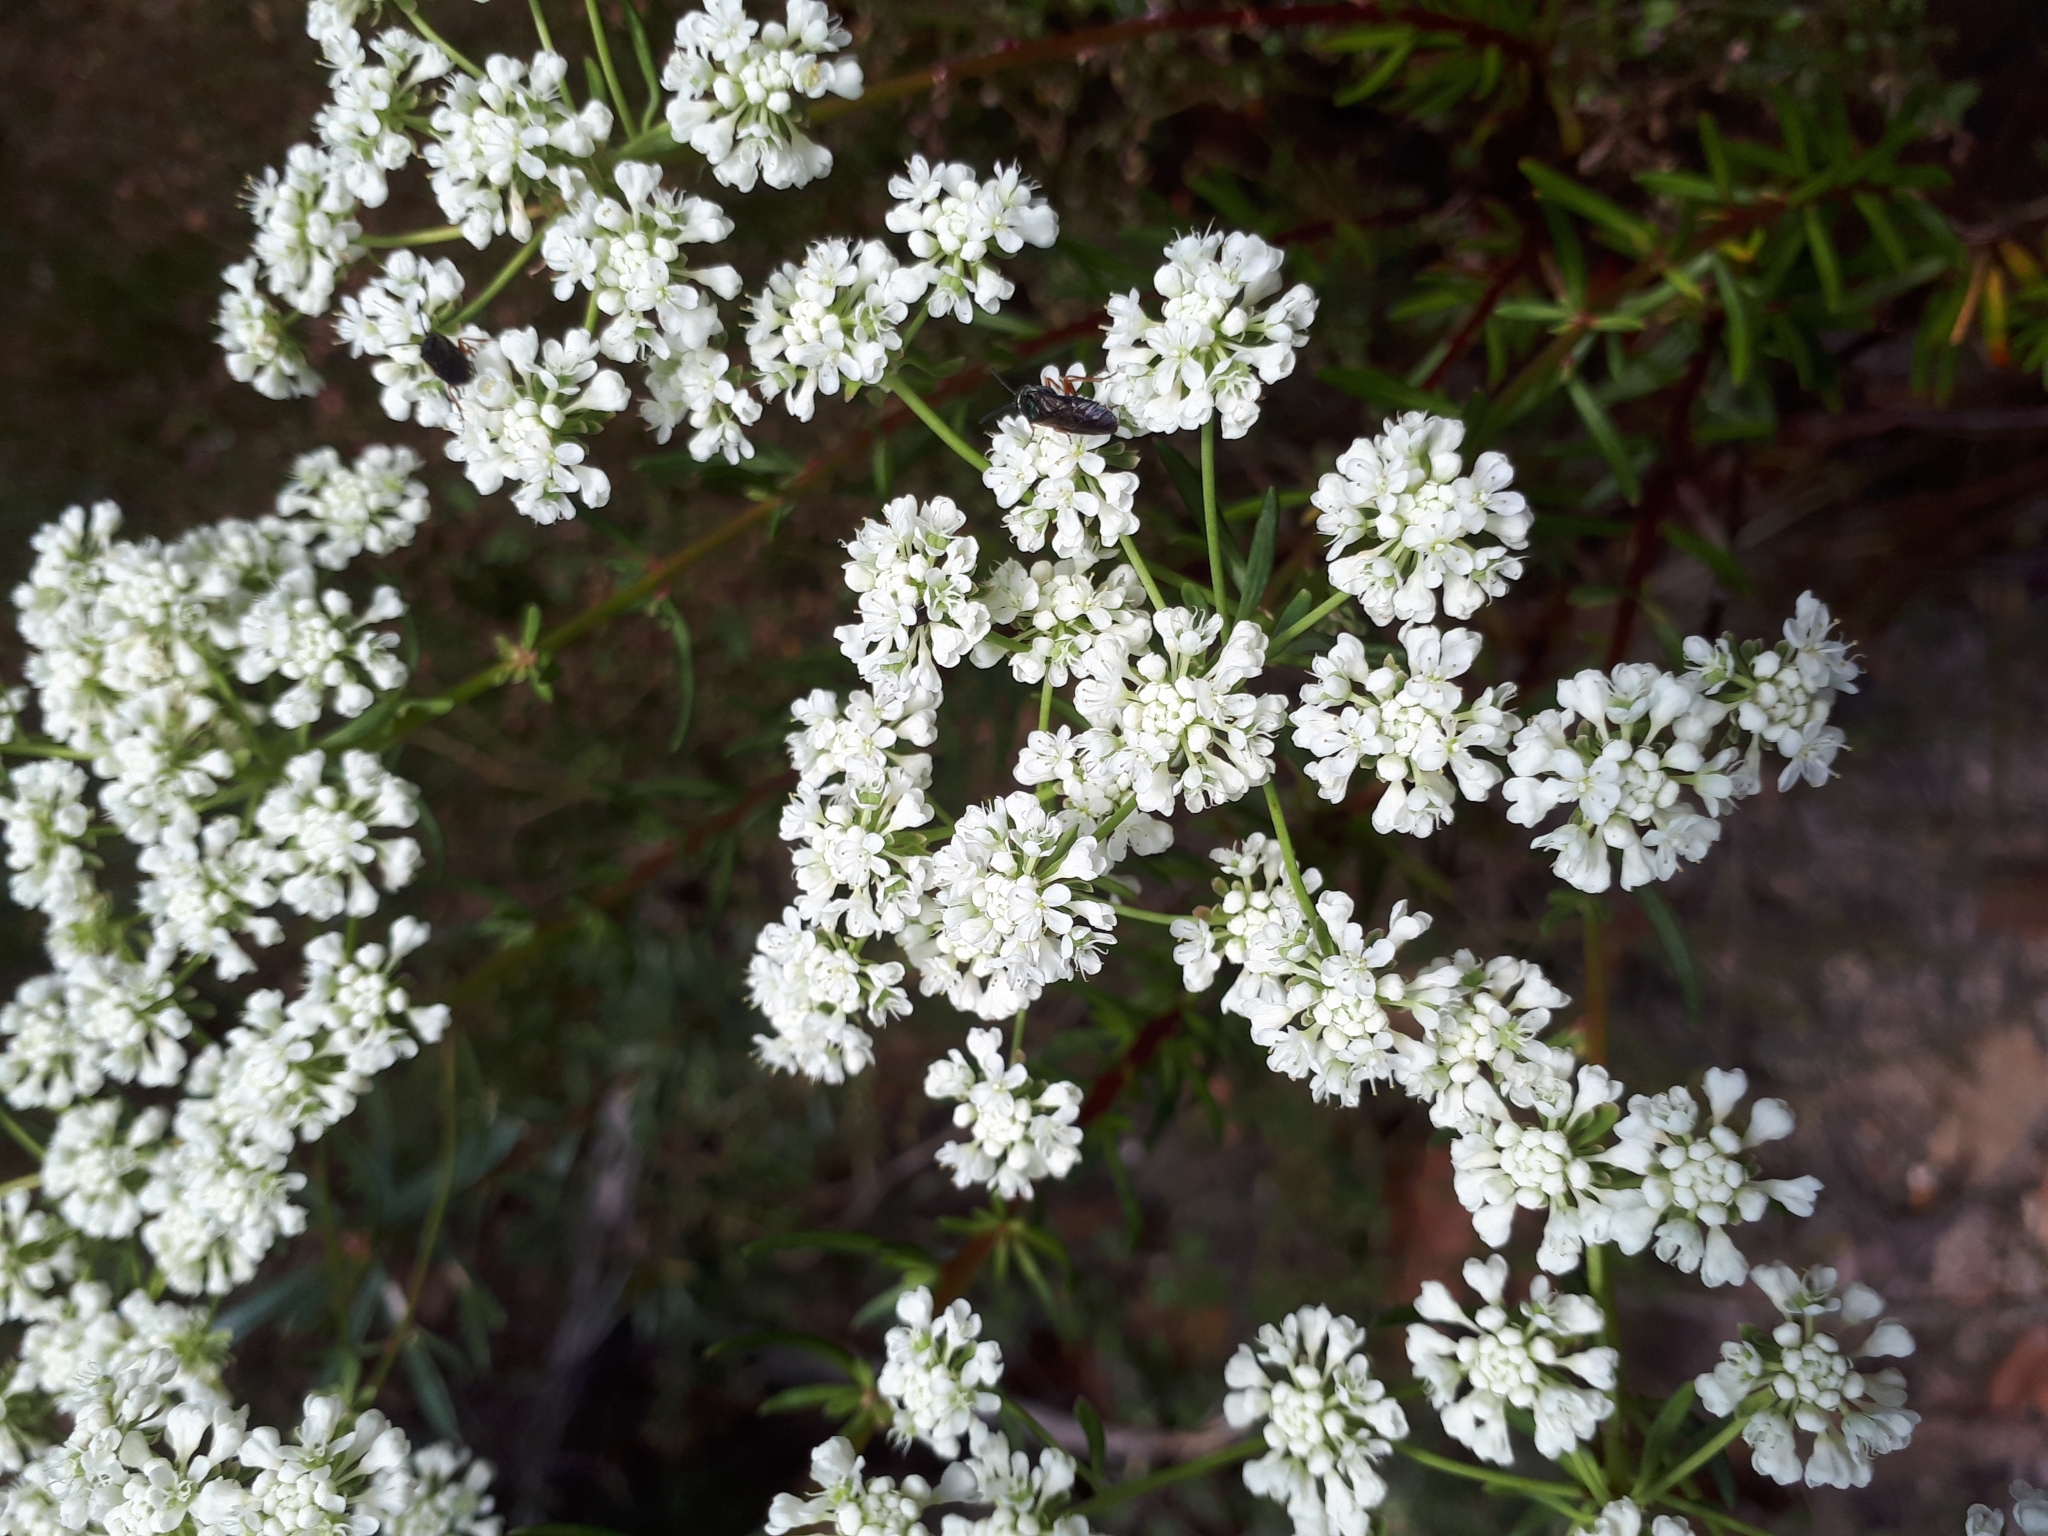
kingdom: Plantae
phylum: Tracheophyta
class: Magnoliopsida
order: Malpighiales
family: Phyllanthaceae
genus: Poranthera
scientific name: Poranthera corymbosa
